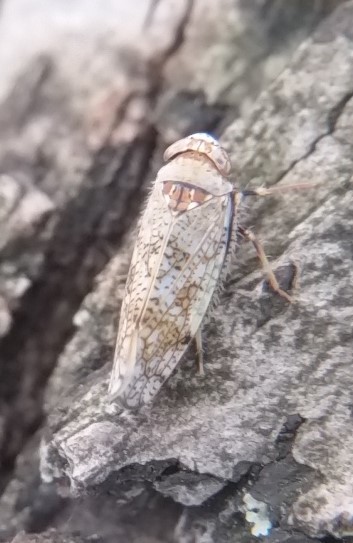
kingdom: Animalia
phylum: Arthropoda
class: Insecta
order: Hemiptera
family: Cicadellidae
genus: Orientus
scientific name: Orientus ishidae
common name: Japanese leafhopper
